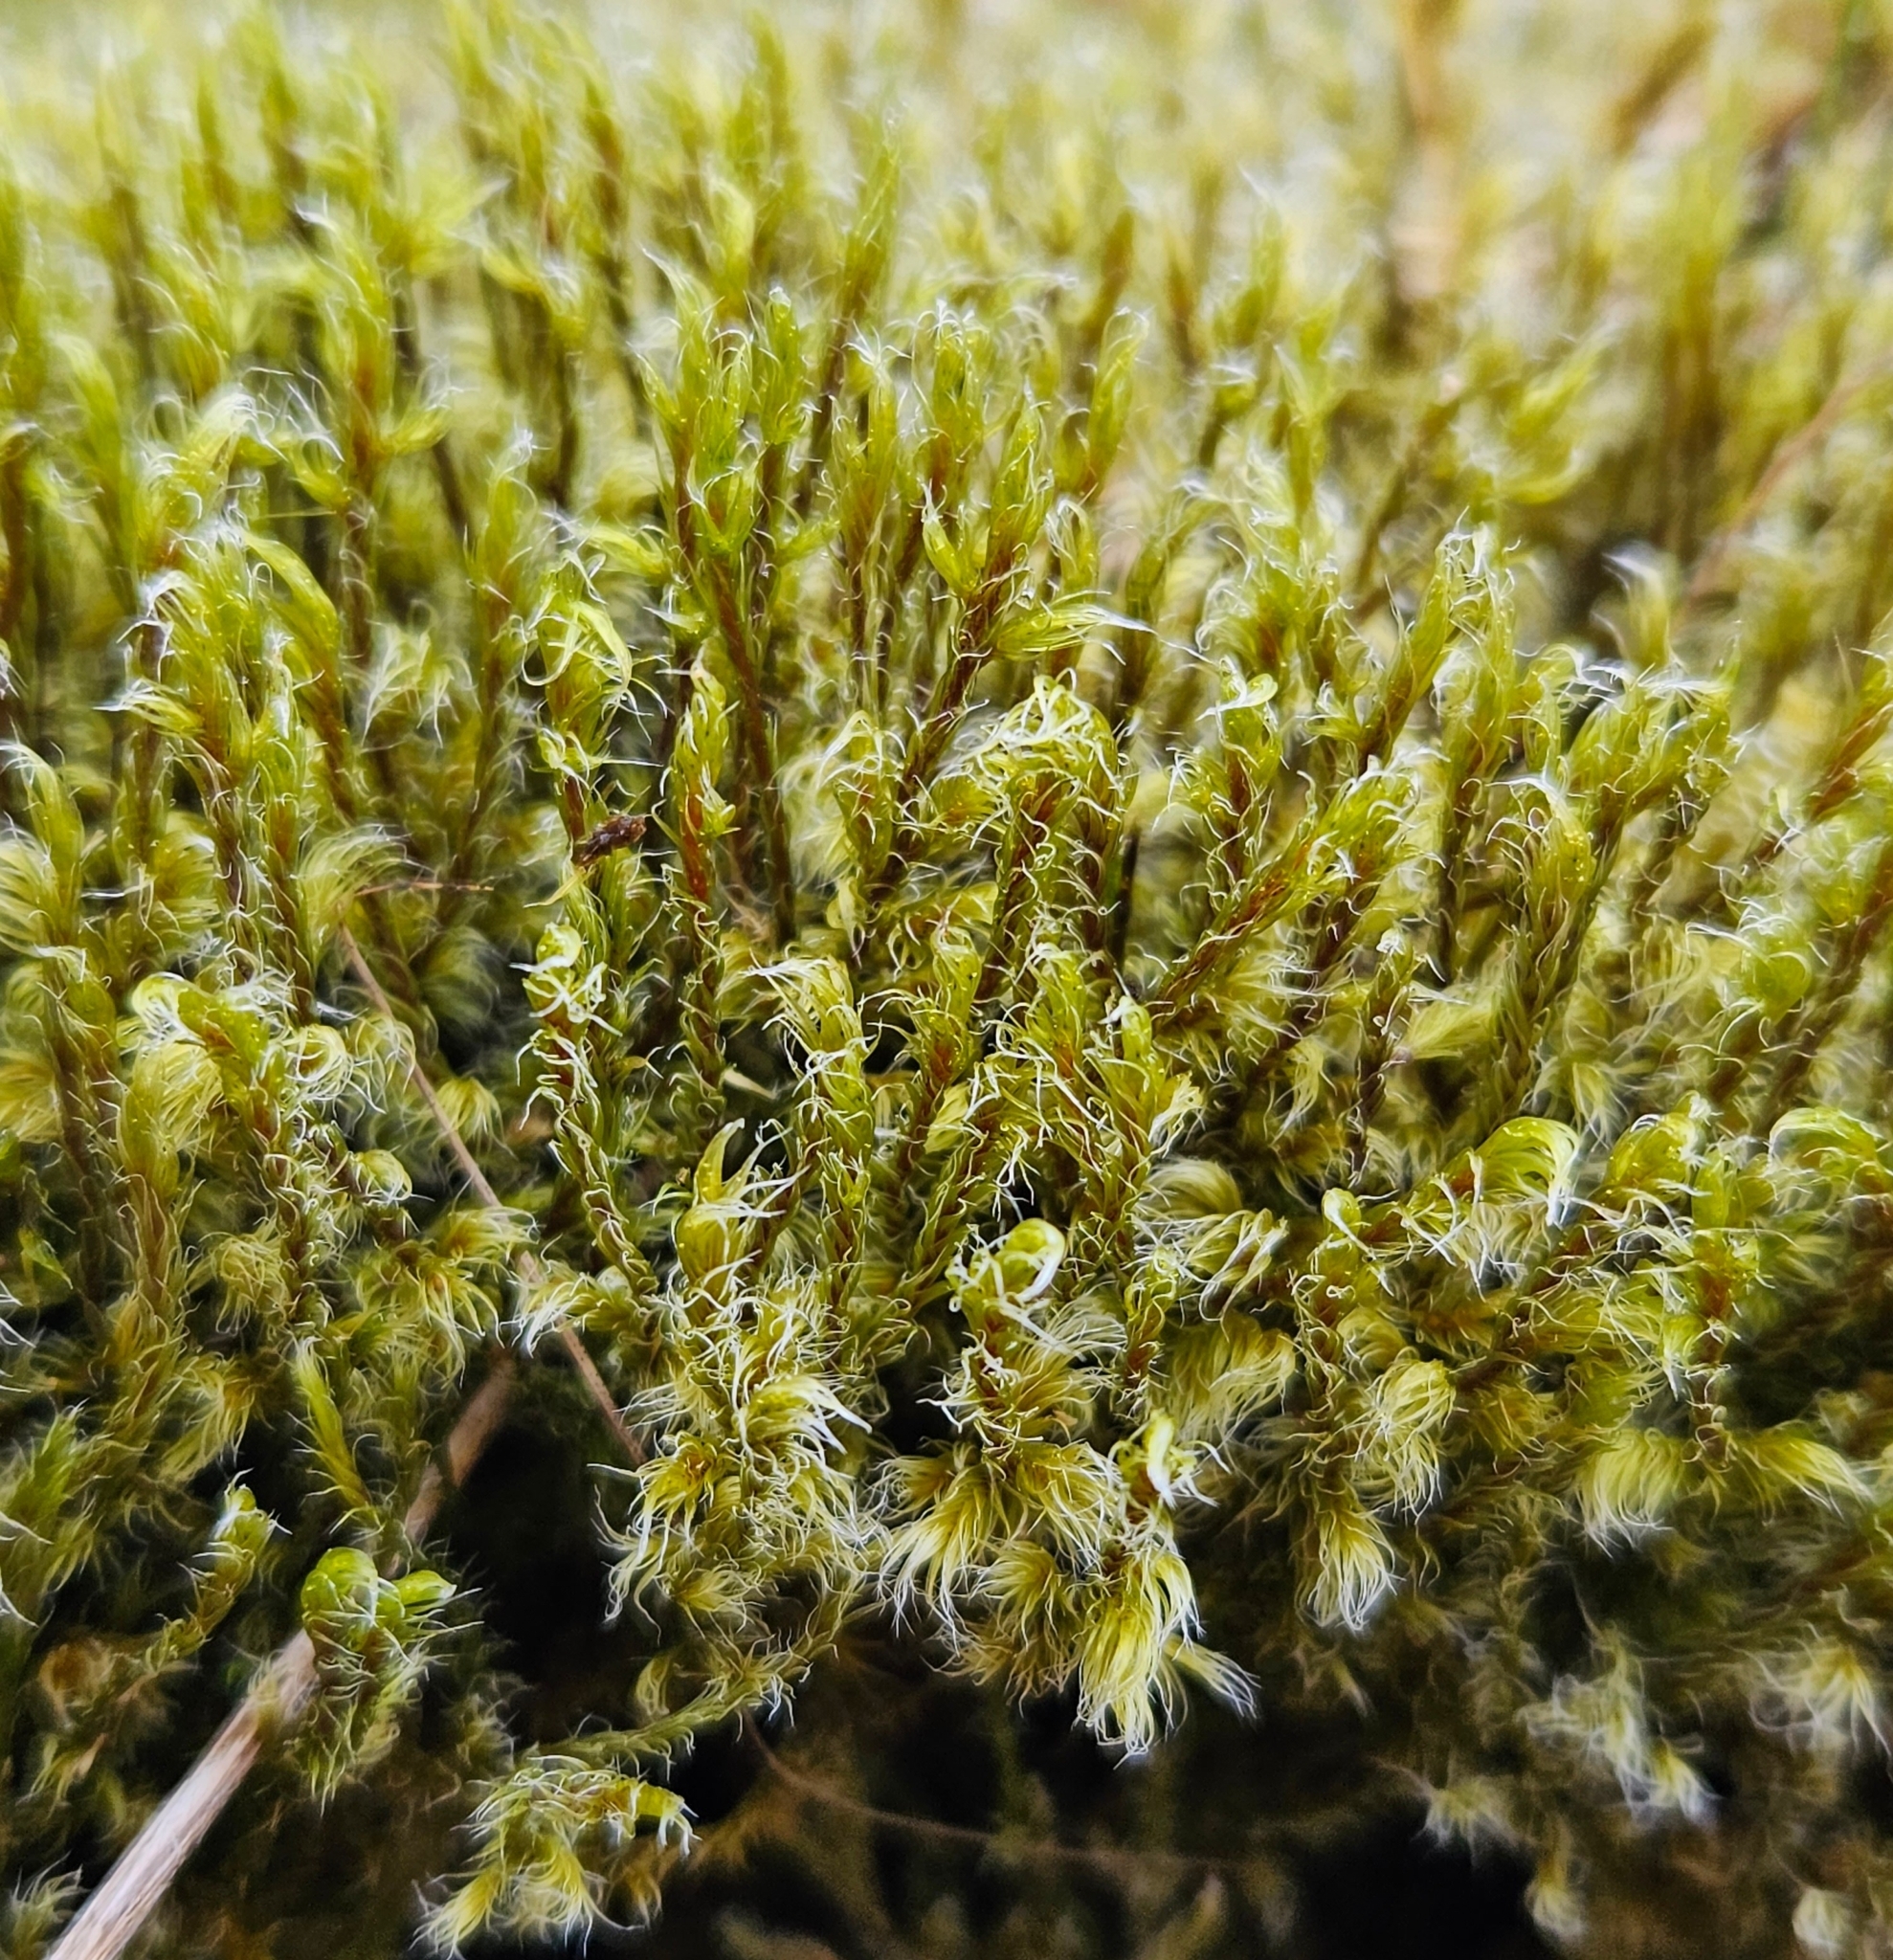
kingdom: Plantae
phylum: Bryophyta
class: Bryopsida
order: Grimmiales
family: Grimmiaceae
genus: Racomitrium
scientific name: Racomitrium lanuginosum
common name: Hoary rock moss
